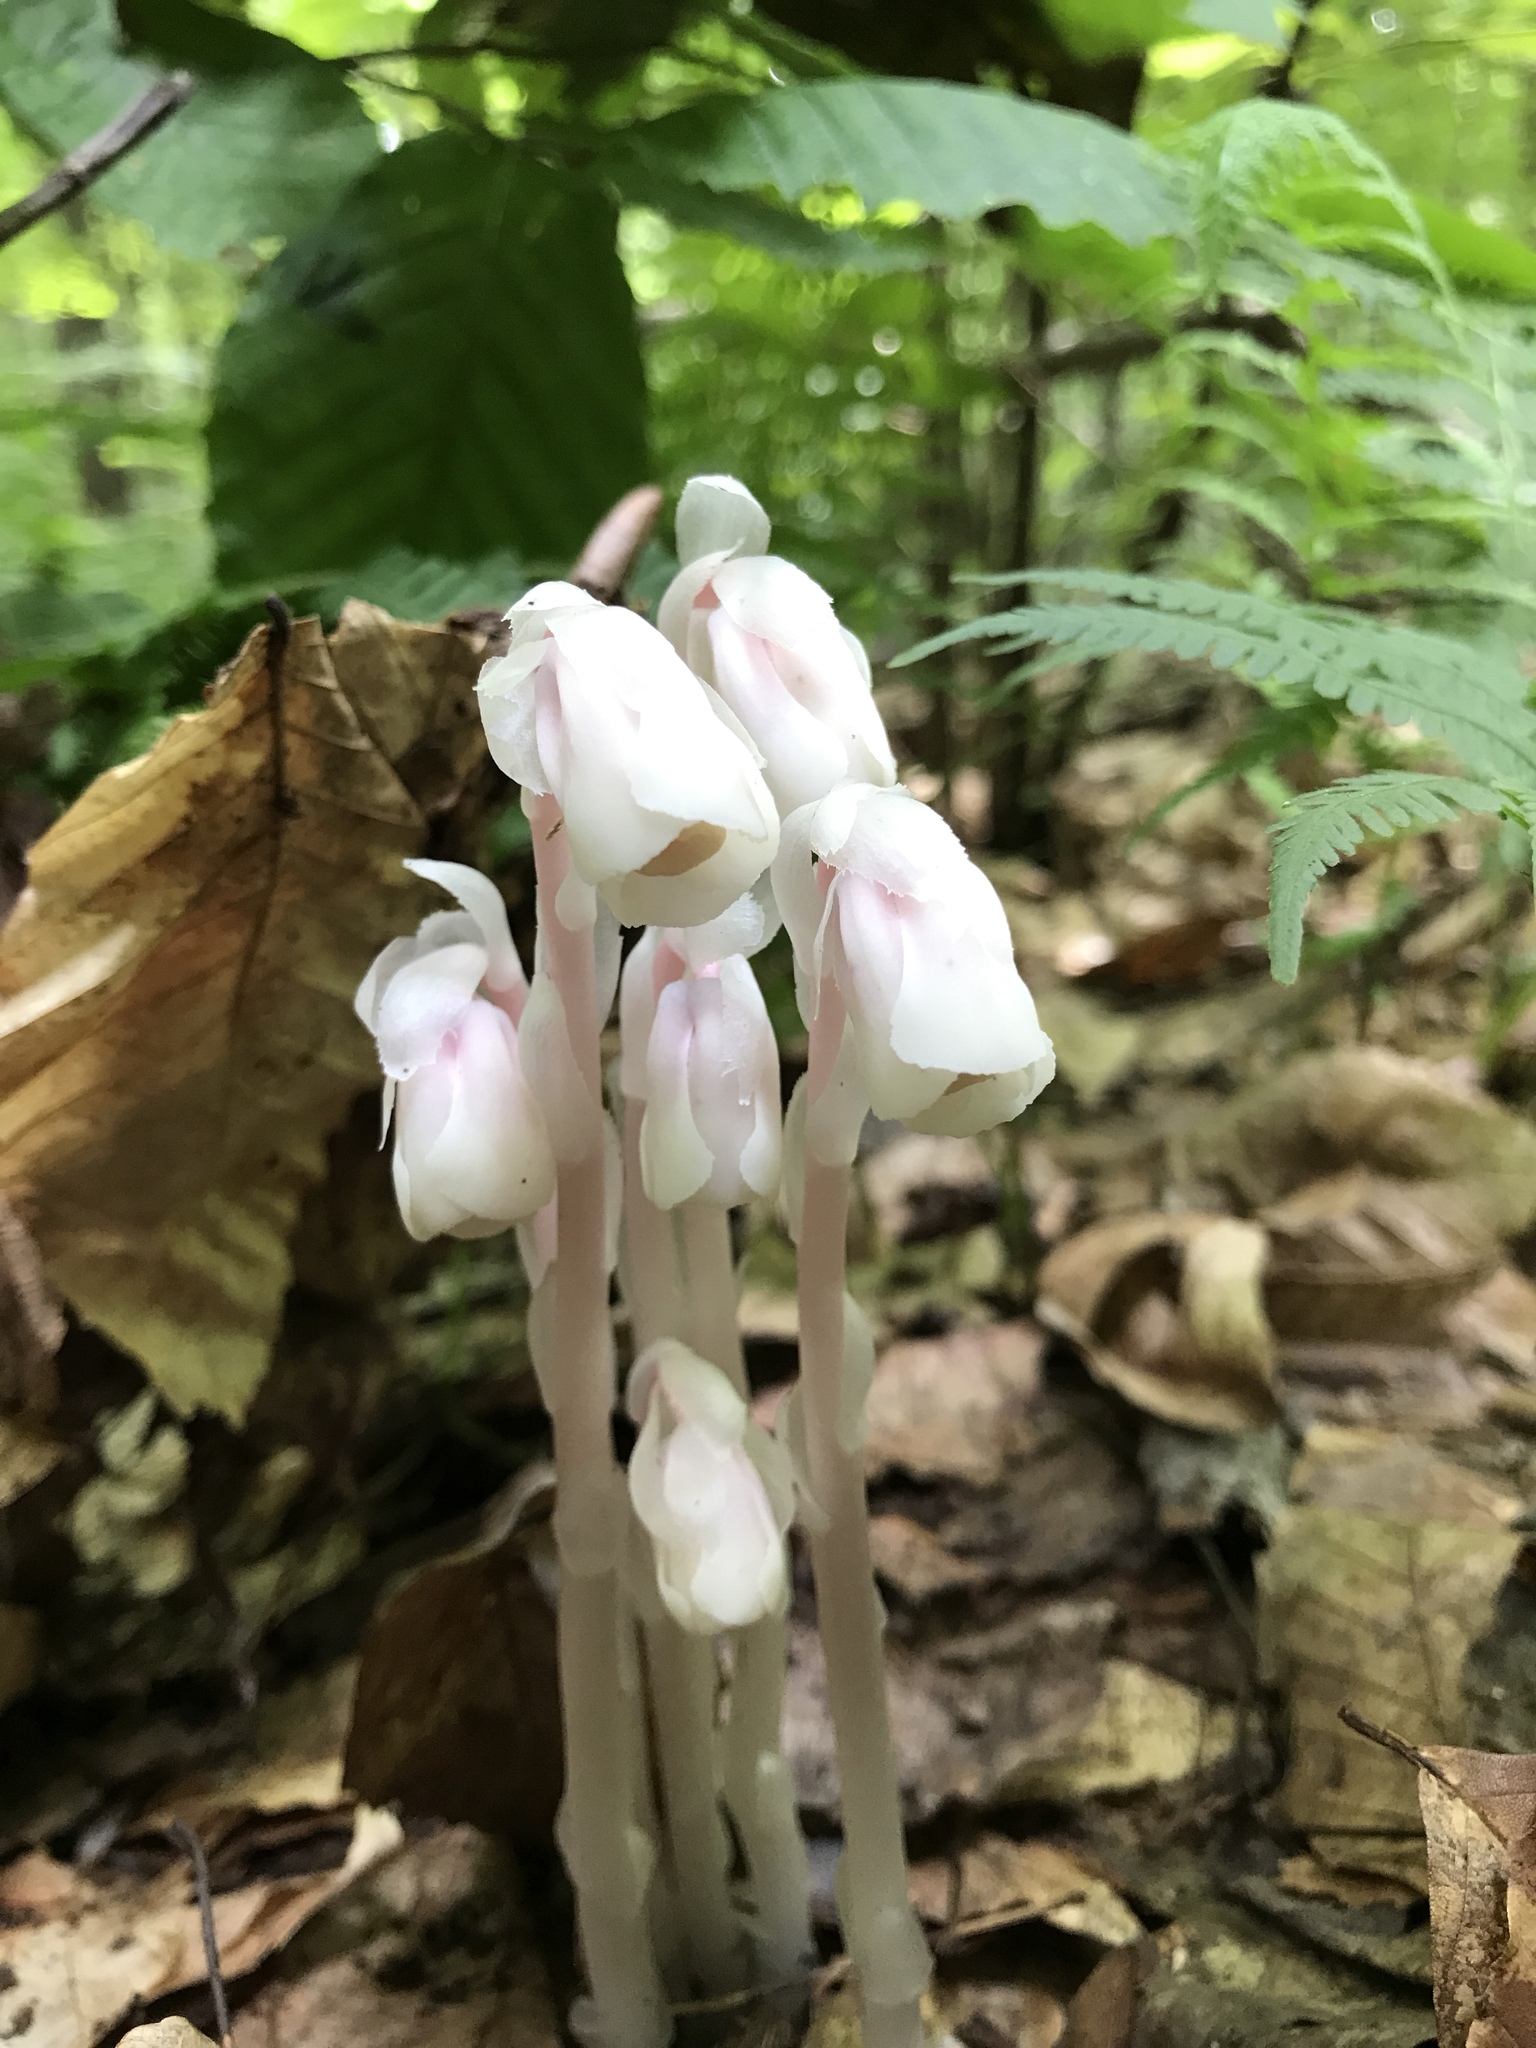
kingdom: Plantae
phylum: Tracheophyta
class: Magnoliopsida
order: Ericales
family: Ericaceae
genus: Monotropa
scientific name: Monotropa uniflora
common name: Convulsion root
